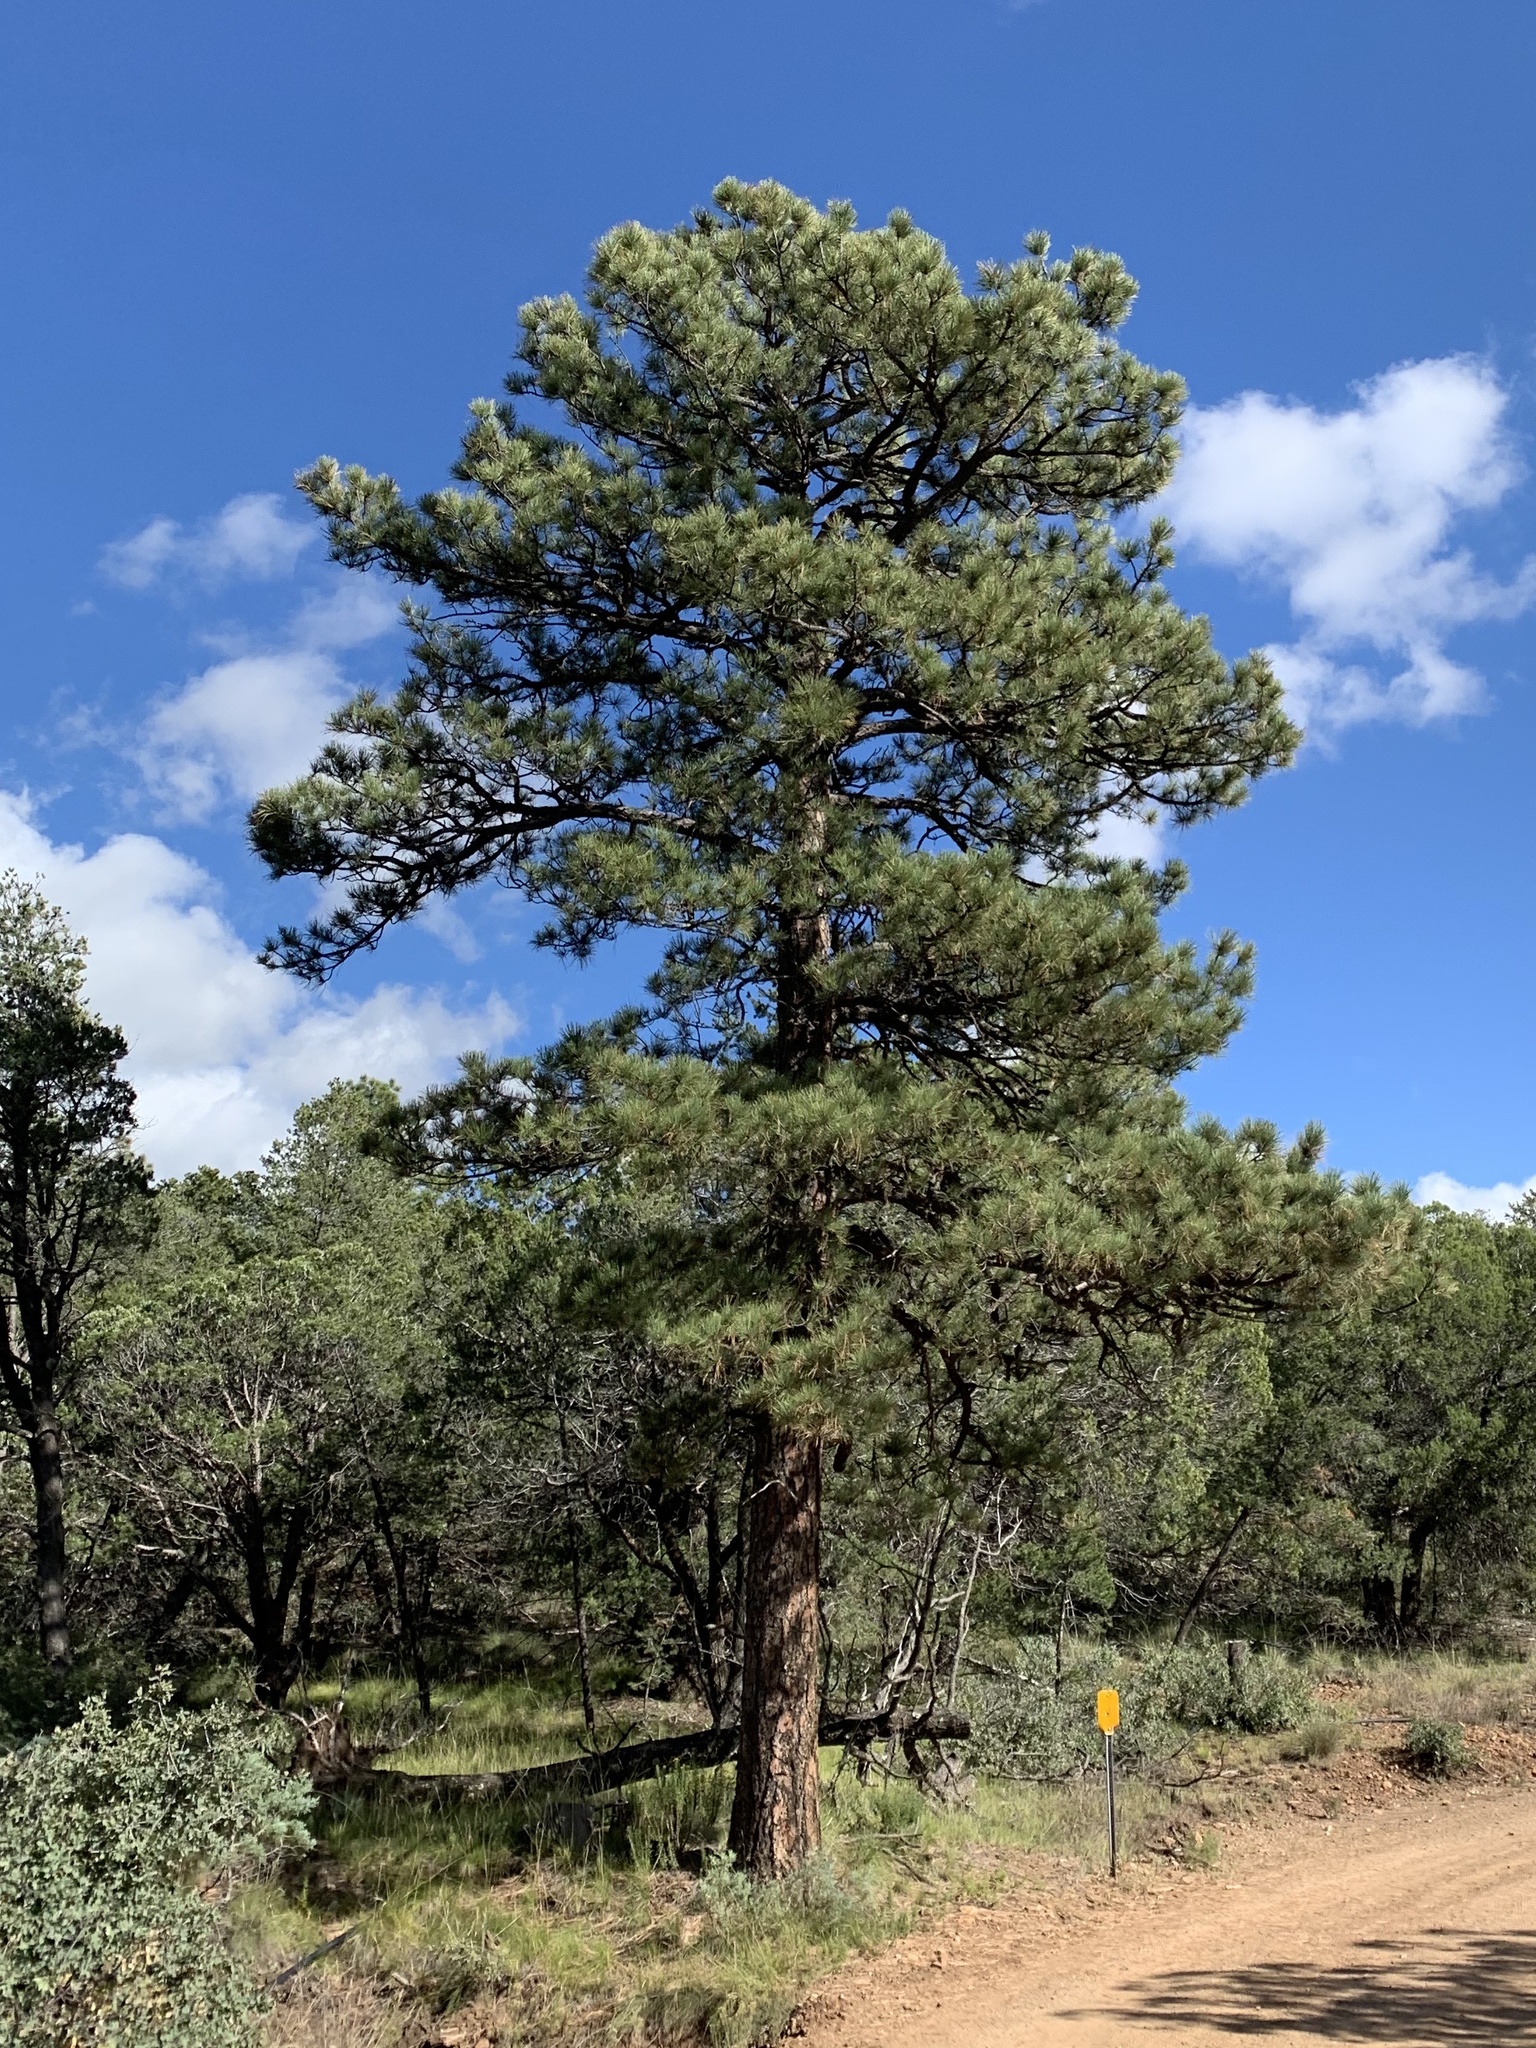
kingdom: Plantae
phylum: Tracheophyta
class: Pinopsida
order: Pinales
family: Pinaceae
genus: Pinus
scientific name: Pinus ponderosa
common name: Western yellow-pine
